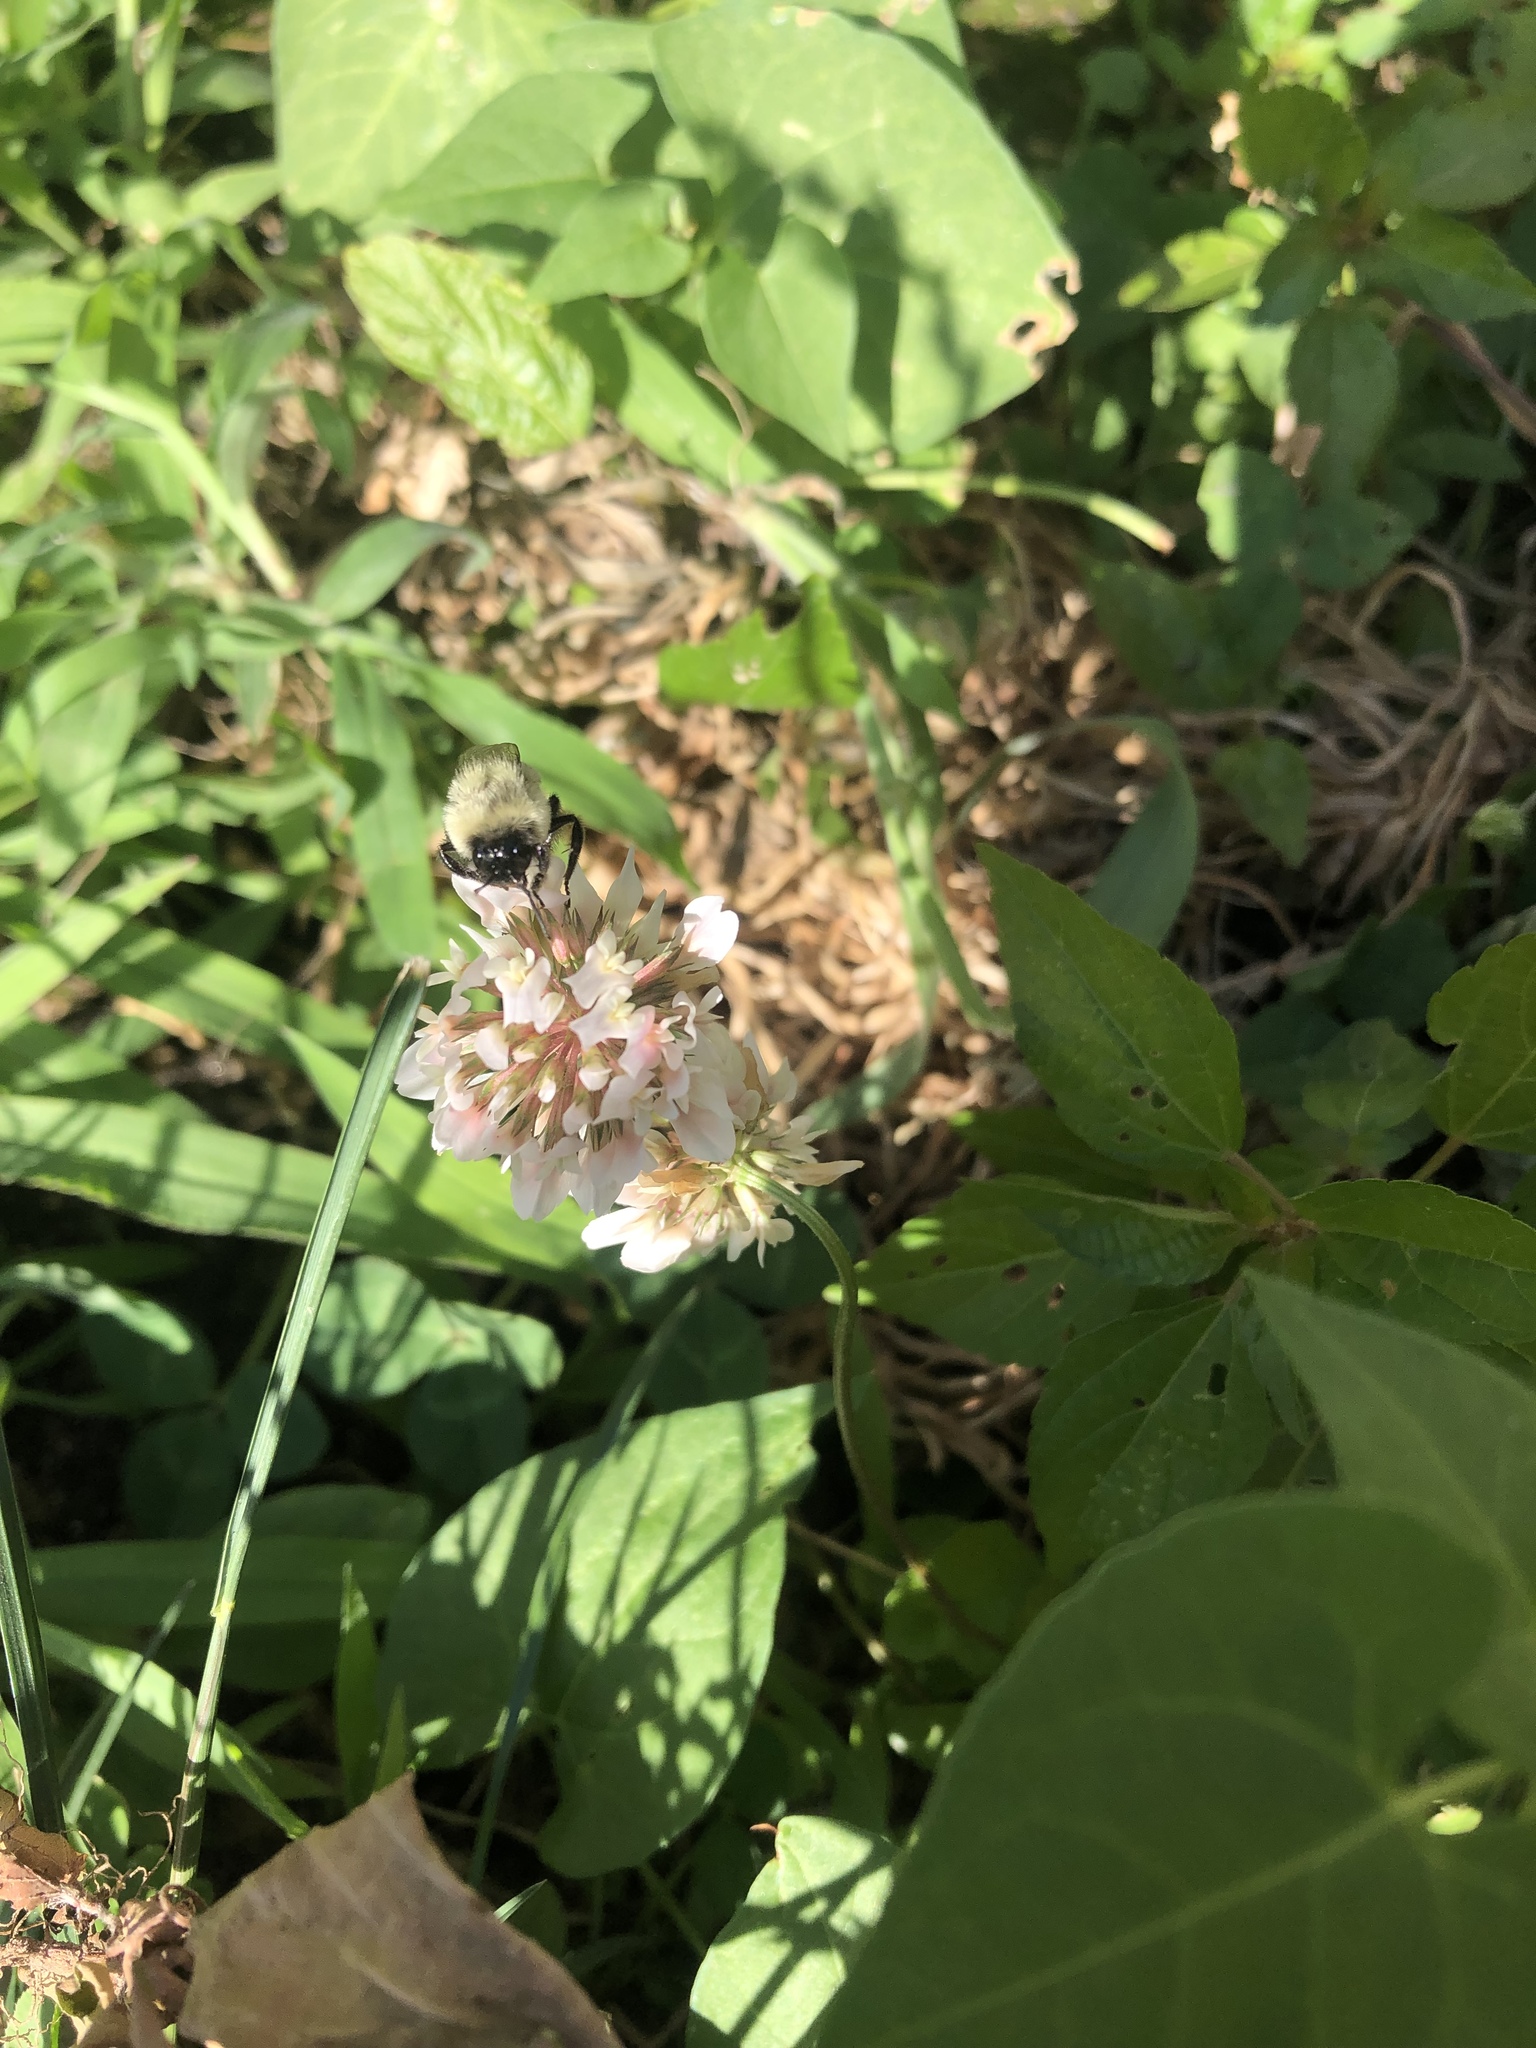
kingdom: Animalia
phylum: Arthropoda
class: Insecta
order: Hymenoptera
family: Apidae
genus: Bombus
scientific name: Bombus impatiens
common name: Common eastern bumble bee
